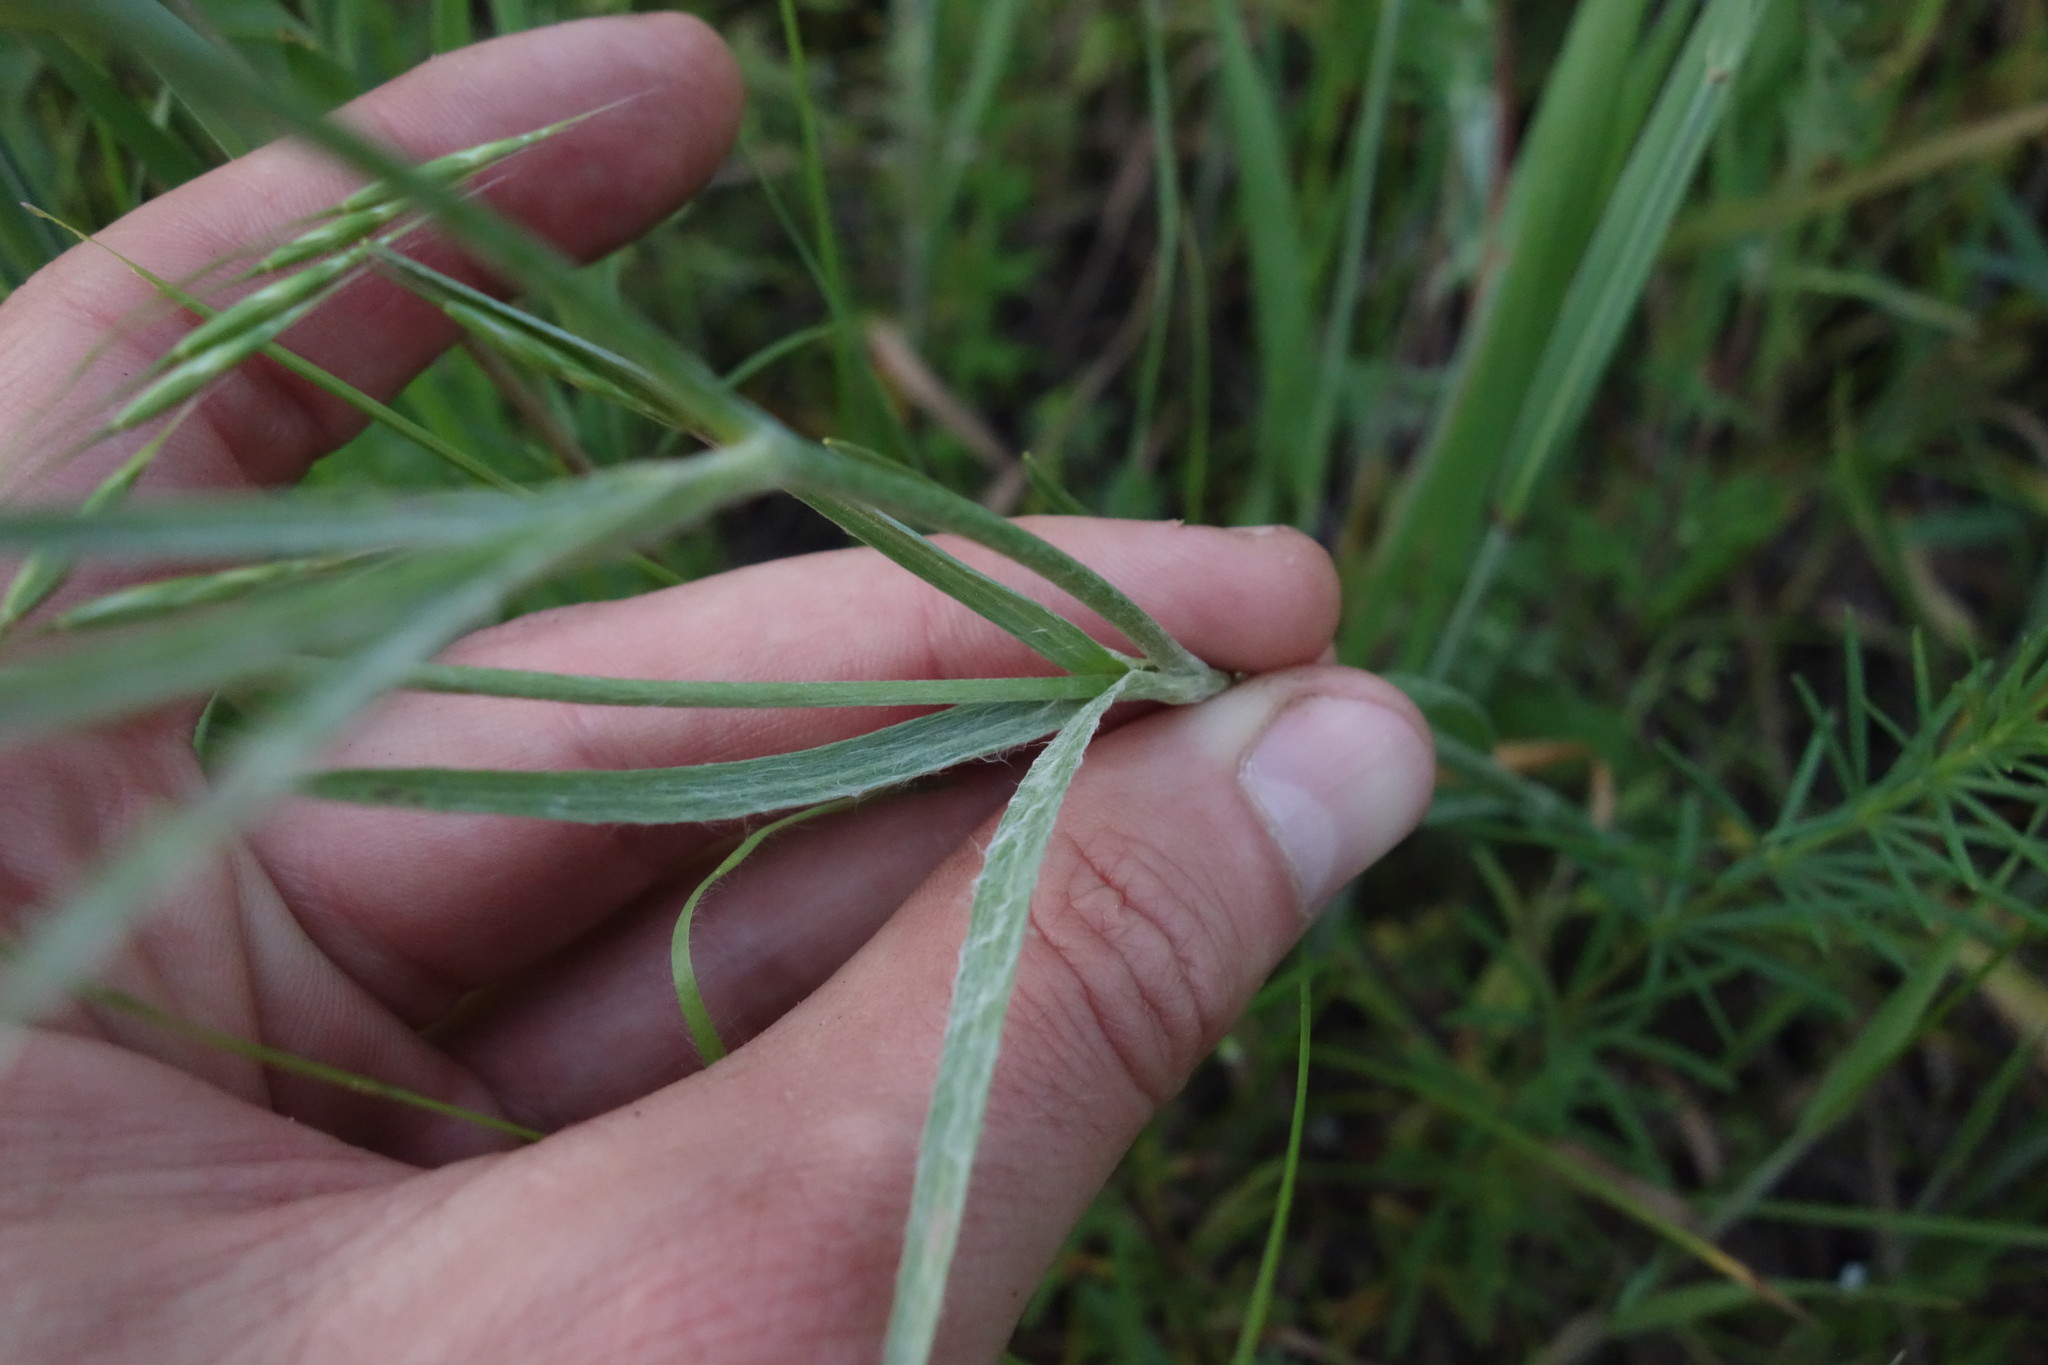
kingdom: Plantae
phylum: Tracheophyta
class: Magnoliopsida
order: Ranunculales
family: Ranunculaceae
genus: Ranunculus
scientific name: Ranunculus illyricus
